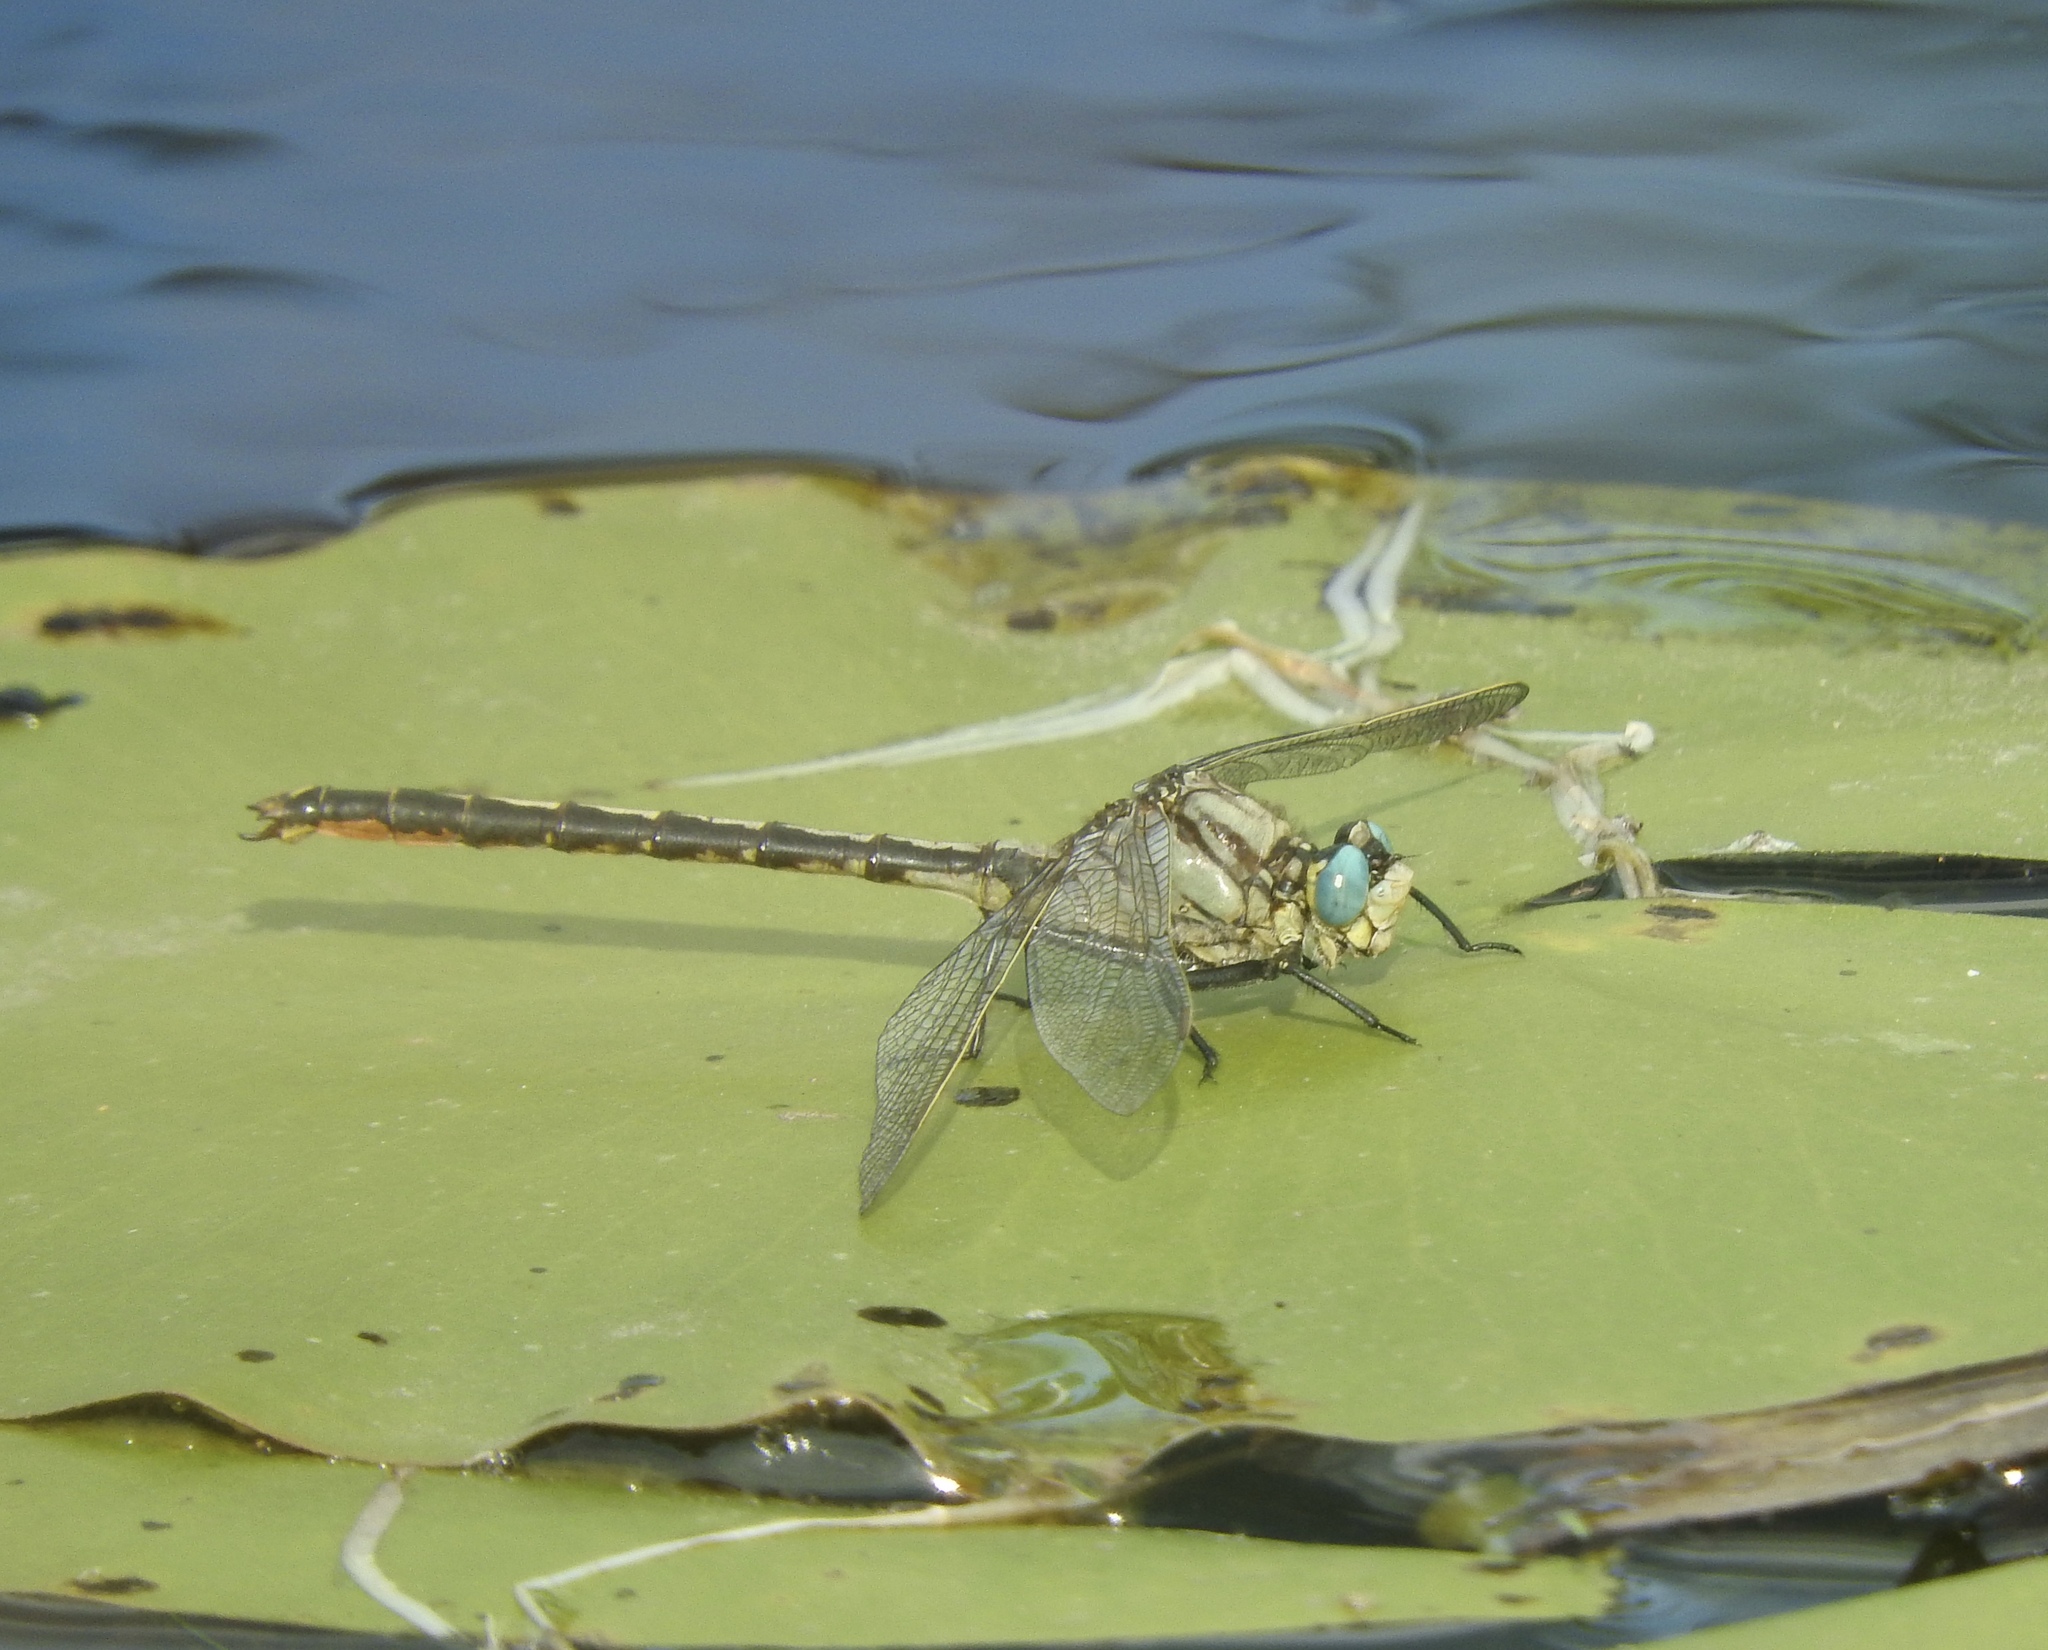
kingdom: Animalia
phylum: Arthropoda
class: Insecta
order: Odonata
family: Gomphidae
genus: Arigomphus
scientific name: Arigomphus cornutus
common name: Horned clubtail
